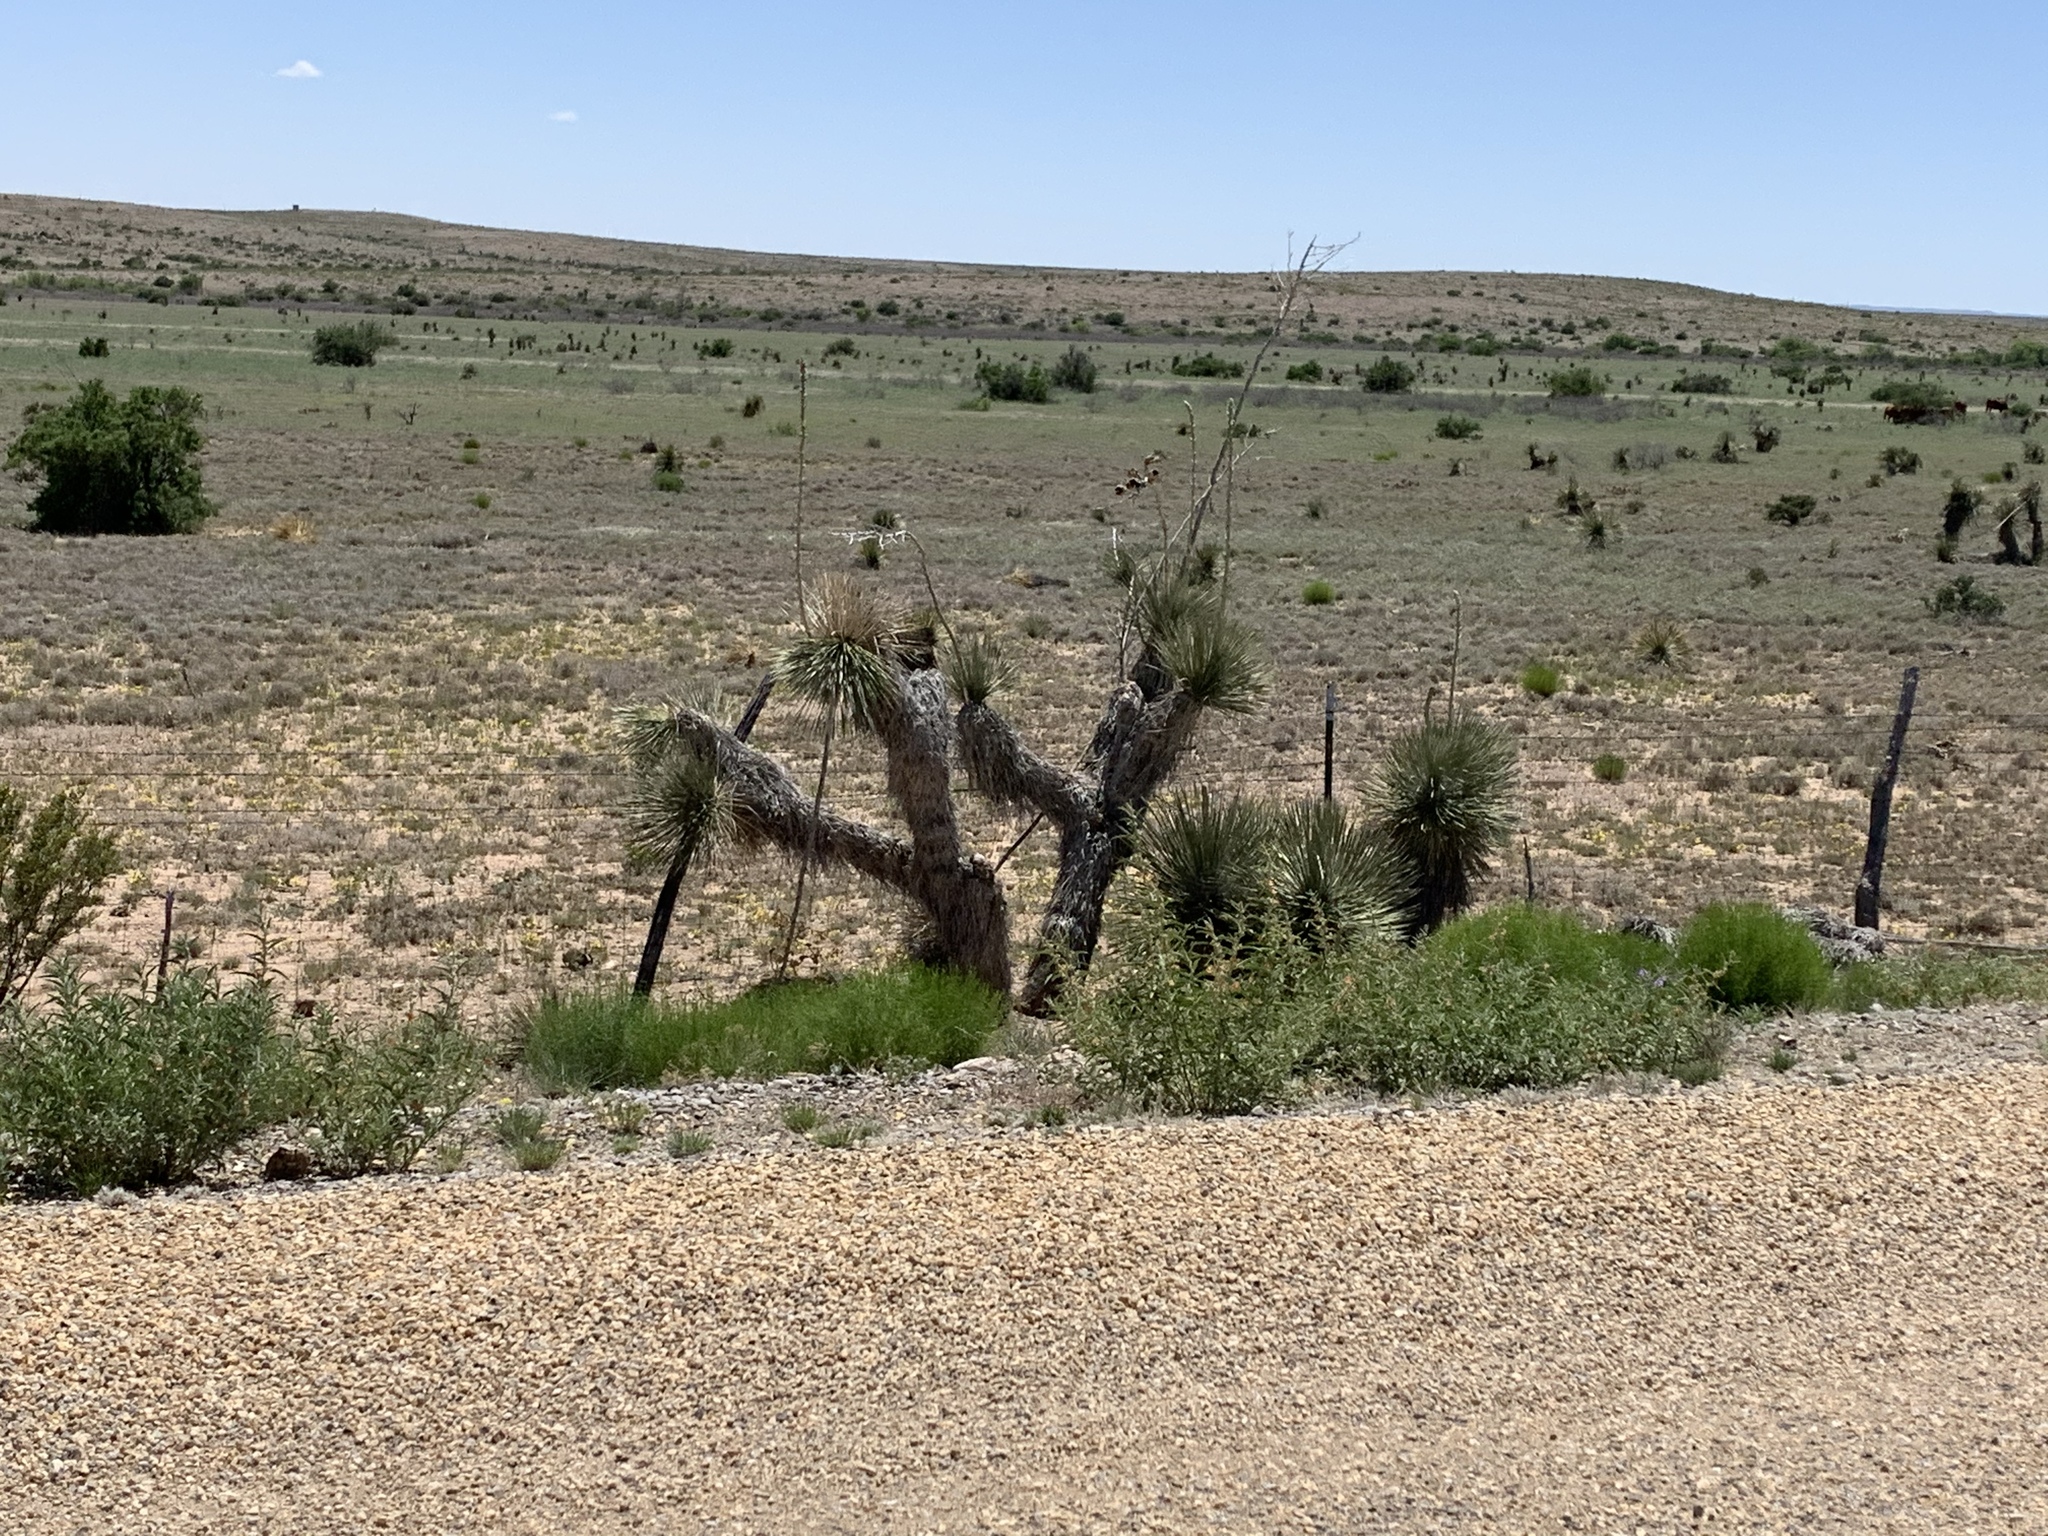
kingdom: Plantae
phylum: Tracheophyta
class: Liliopsida
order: Asparagales
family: Asparagaceae
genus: Yucca
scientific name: Yucca elata
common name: Palmella
